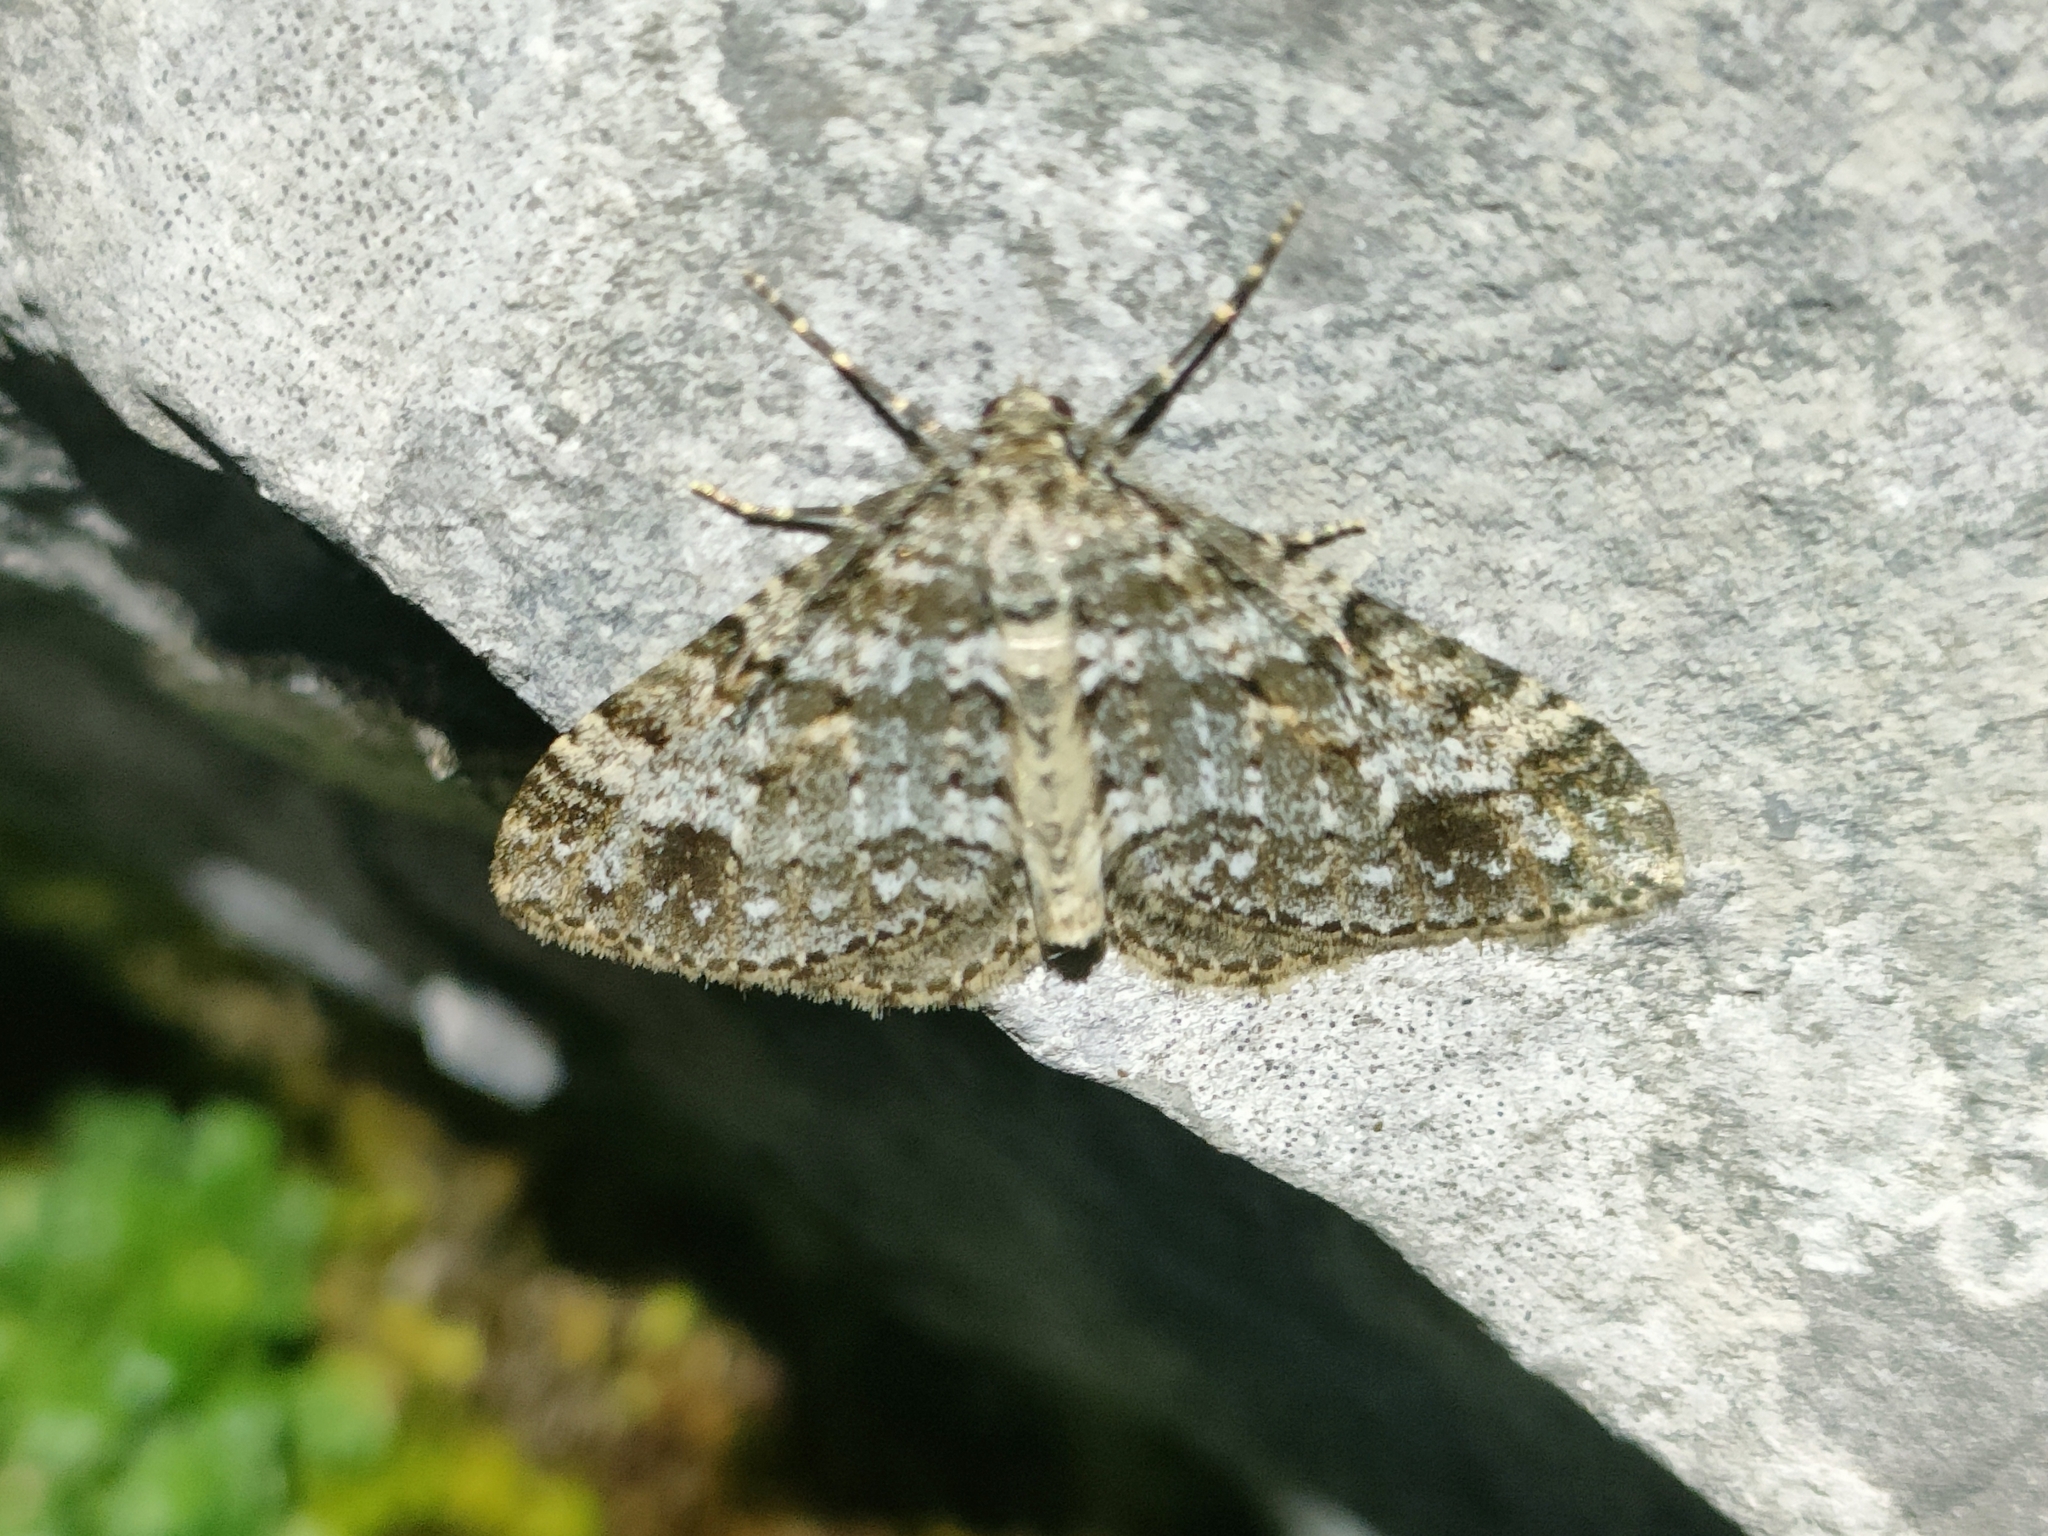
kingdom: Animalia
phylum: Arthropoda
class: Insecta
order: Lepidoptera
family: Geometridae
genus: Perizoma
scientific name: Perizoma didymata
